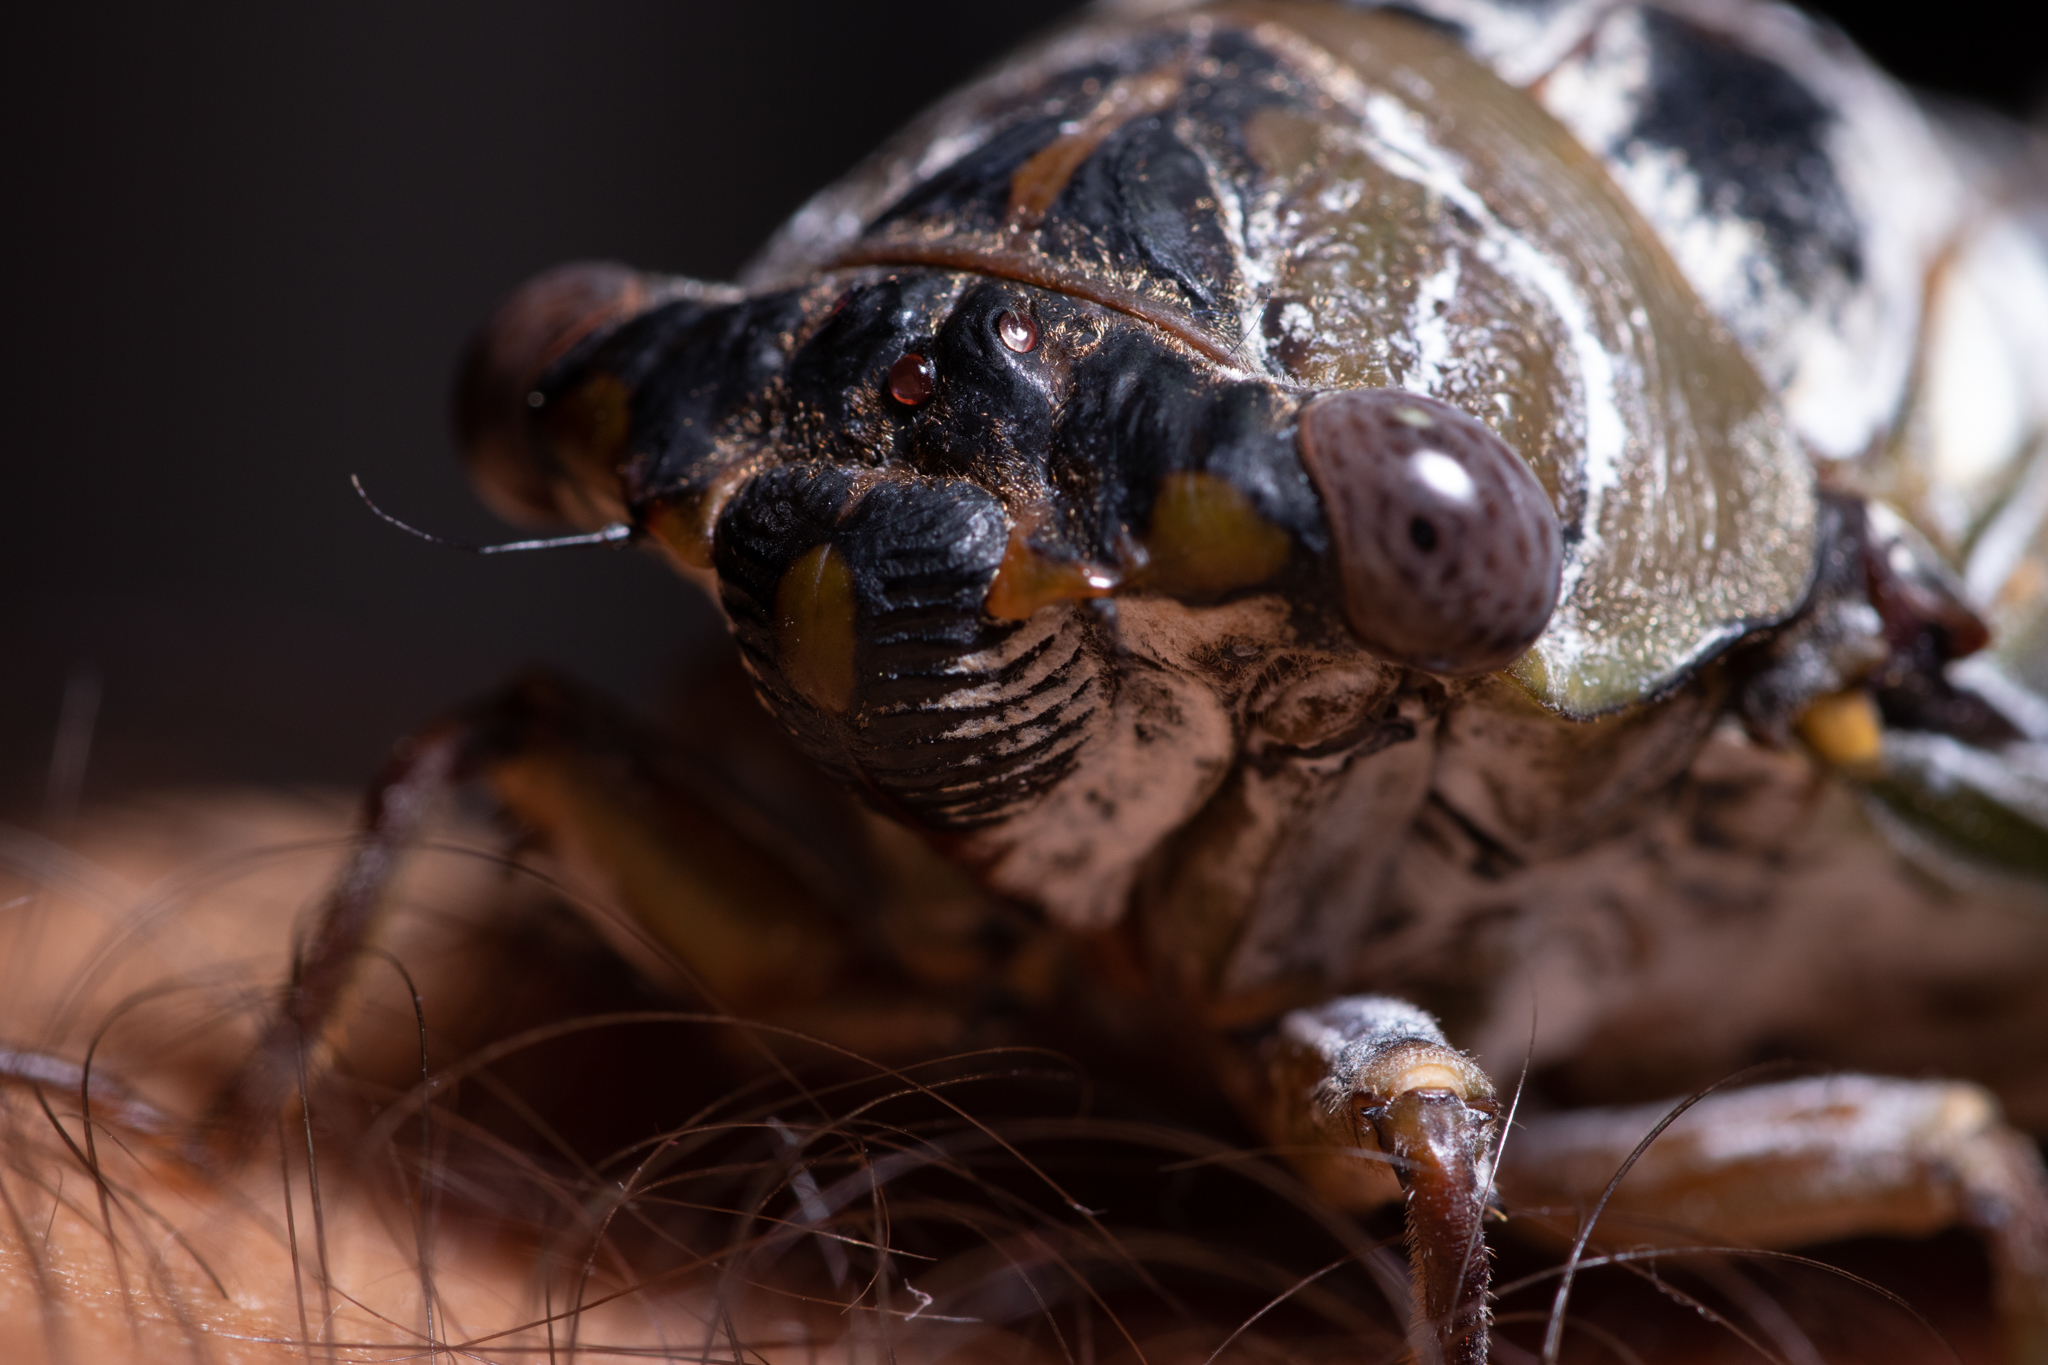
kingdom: Animalia
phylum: Arthropoda
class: Insecta
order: Hemiptera
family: Cicadidae
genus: Diceroprocta
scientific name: Diceroprocta grossa
